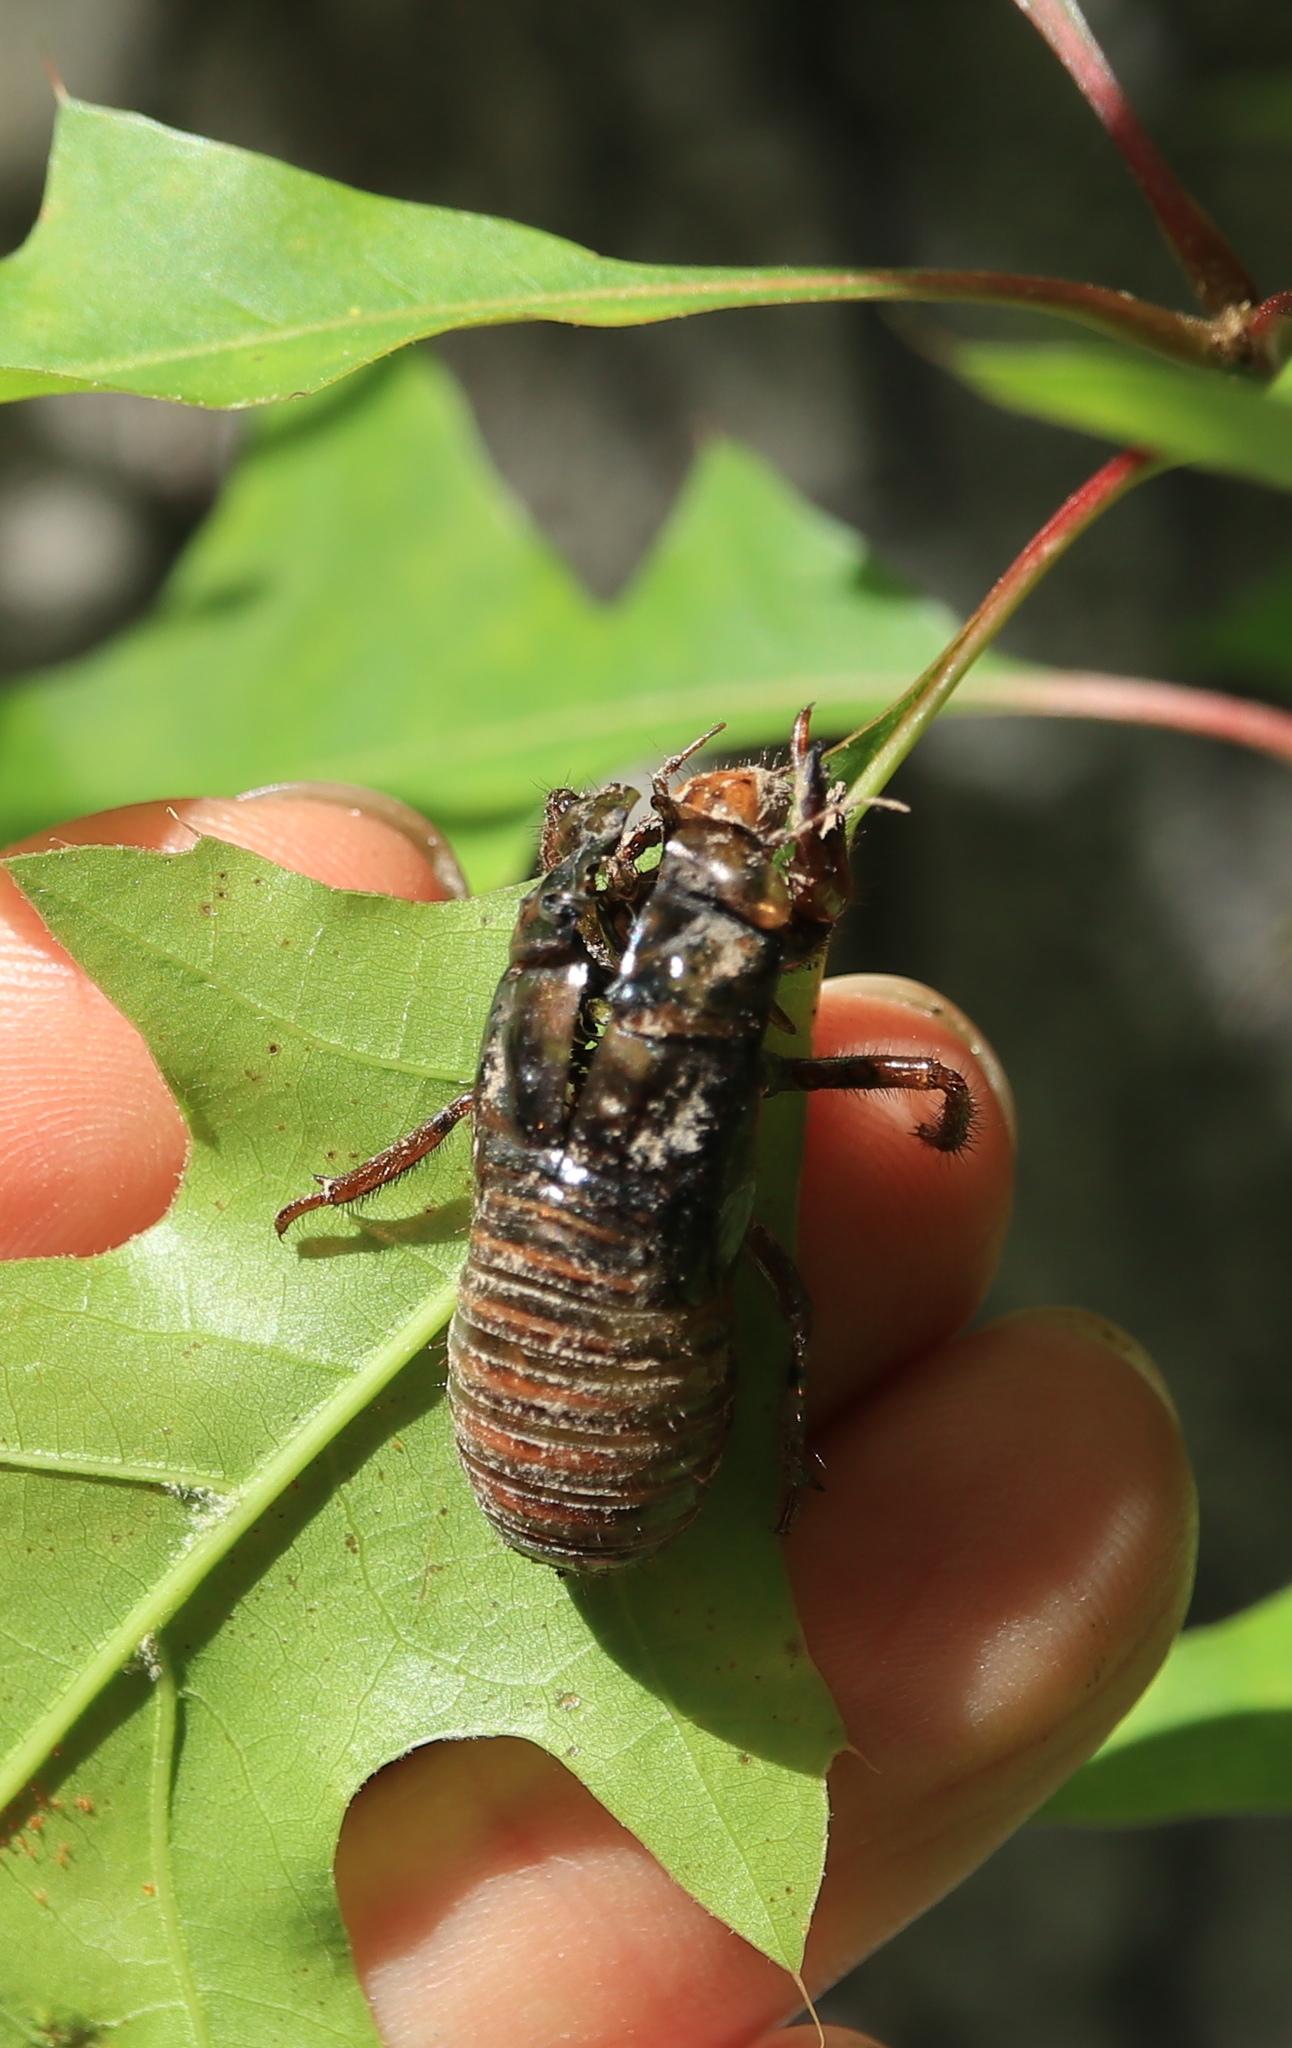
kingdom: Animalia
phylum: Arthropoda
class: Insecta
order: Hemiptera
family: Cicadidae
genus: Magicicada
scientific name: Magicicada
